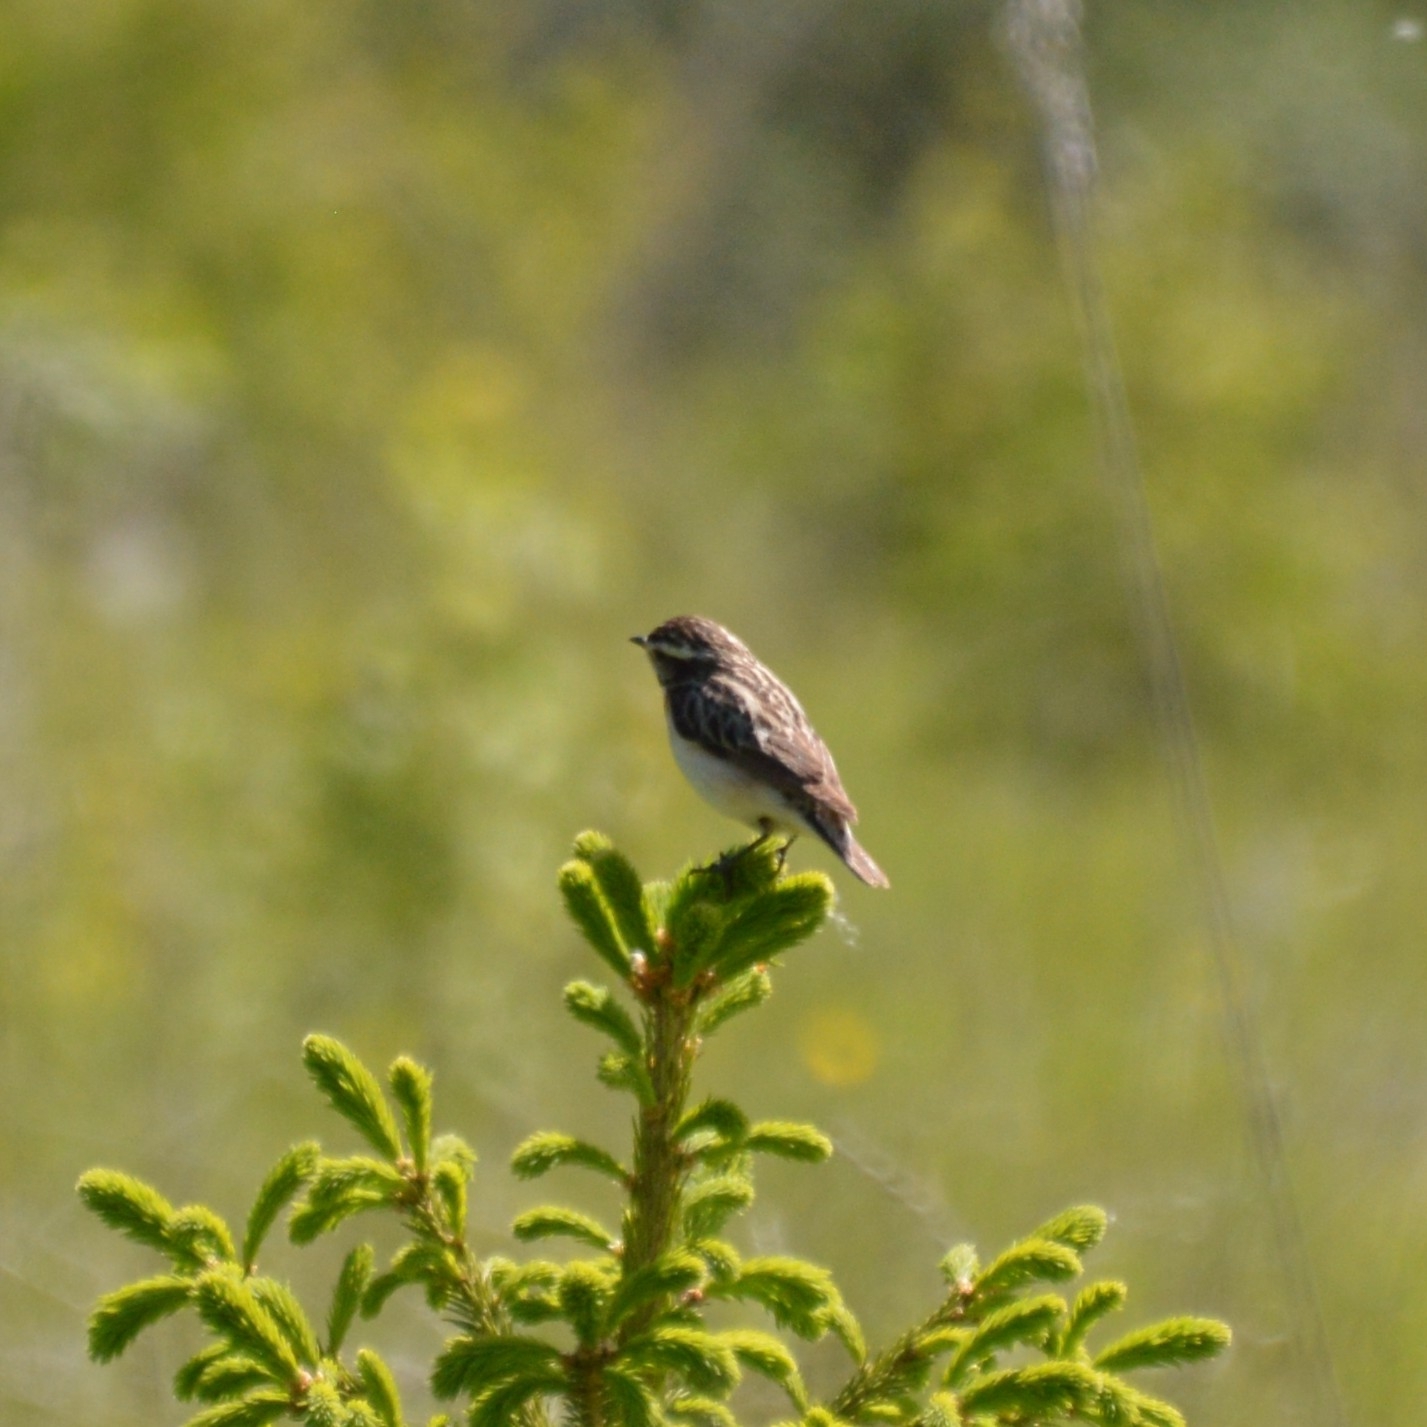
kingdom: Animalia
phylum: Chordata
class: Aves
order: Passeriformes
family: Muscicapidae
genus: Saxicola
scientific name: Saxicola rubetra
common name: Whinchat
